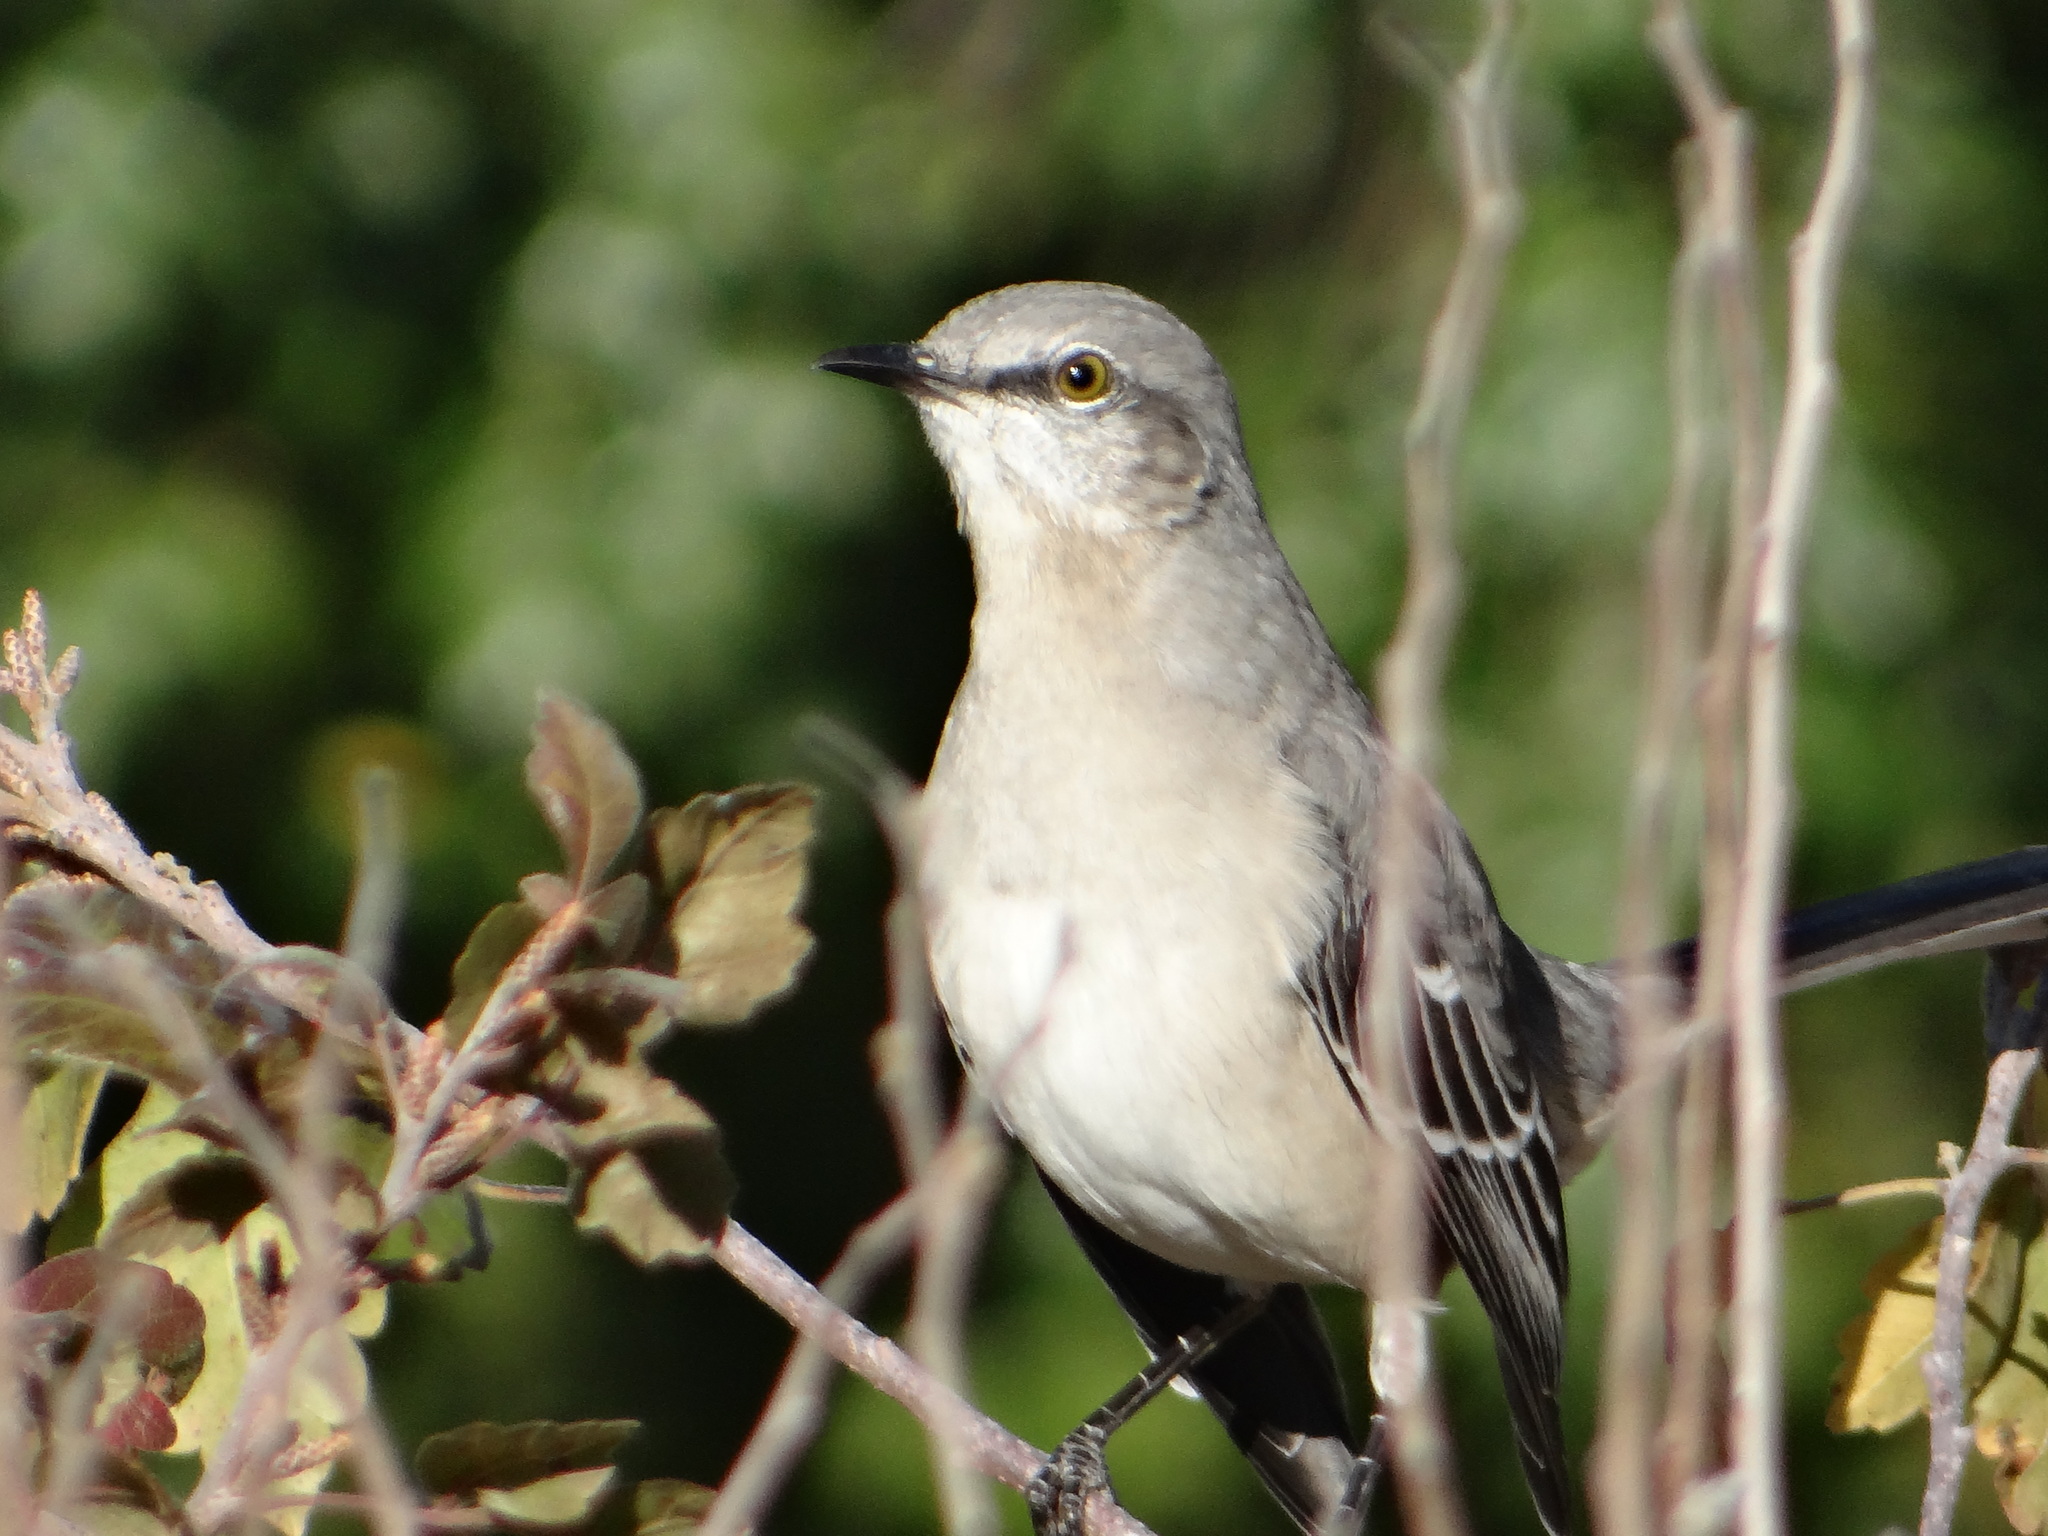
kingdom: Animalia
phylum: Chordata
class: Aves
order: Passeriformes
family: Mimidae
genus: Mimus
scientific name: Mimus polyglottos
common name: Northern mockingbird
